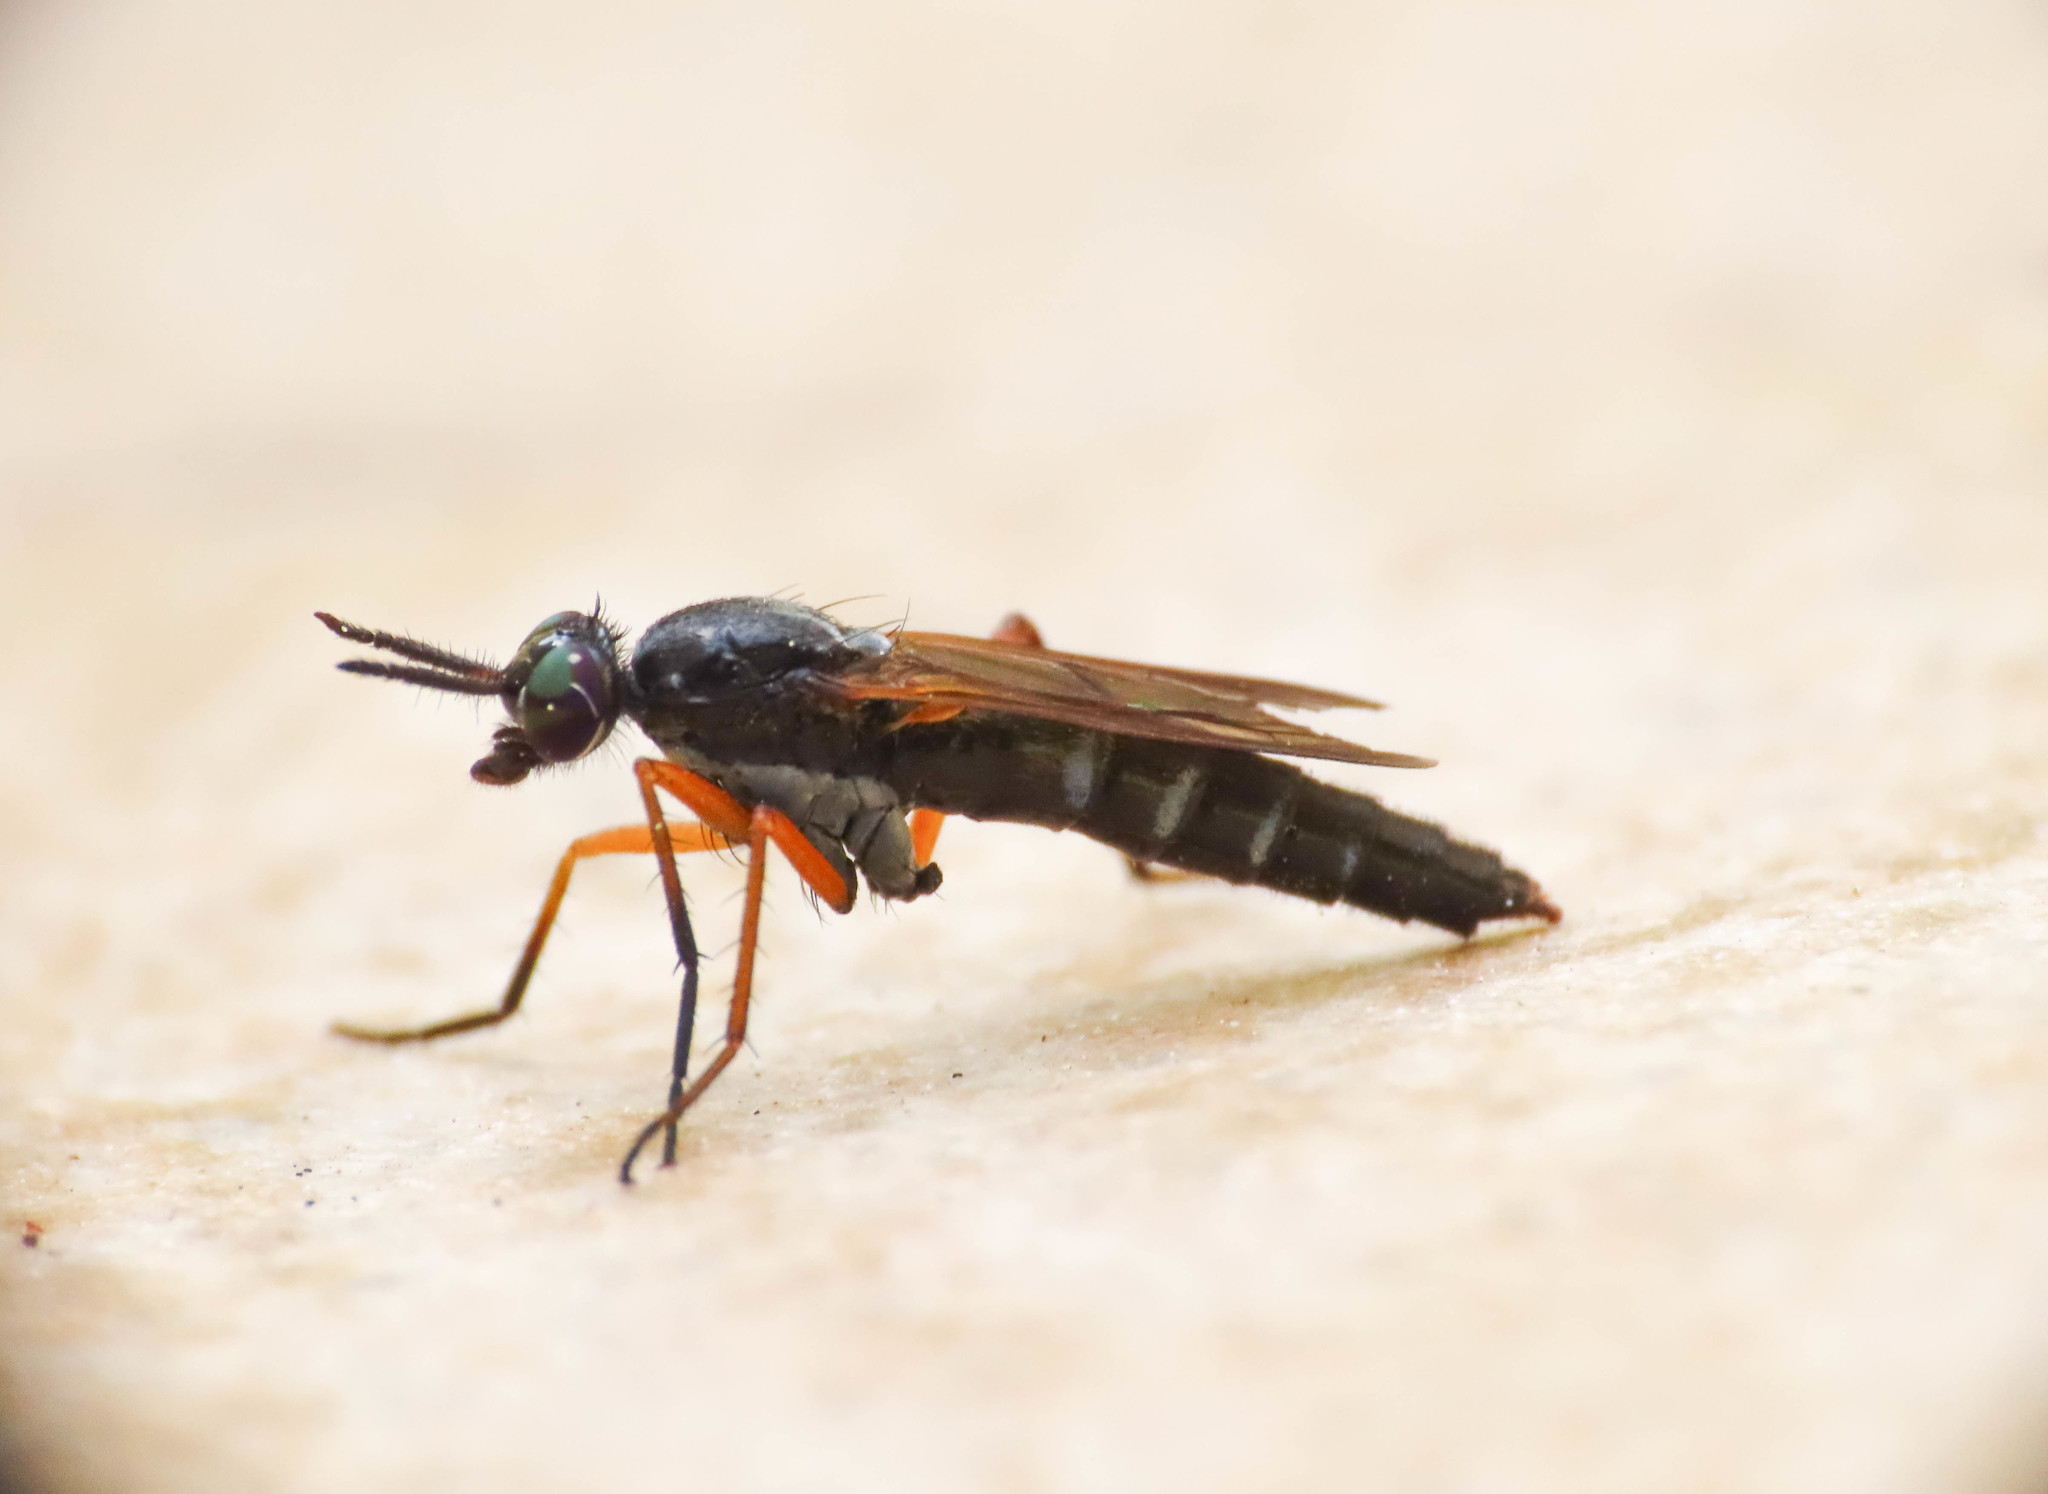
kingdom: Animalia
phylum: Arthropoda
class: Insecta
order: Diptera
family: Therevidae
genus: Euphycus
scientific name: Euphycus dispar
